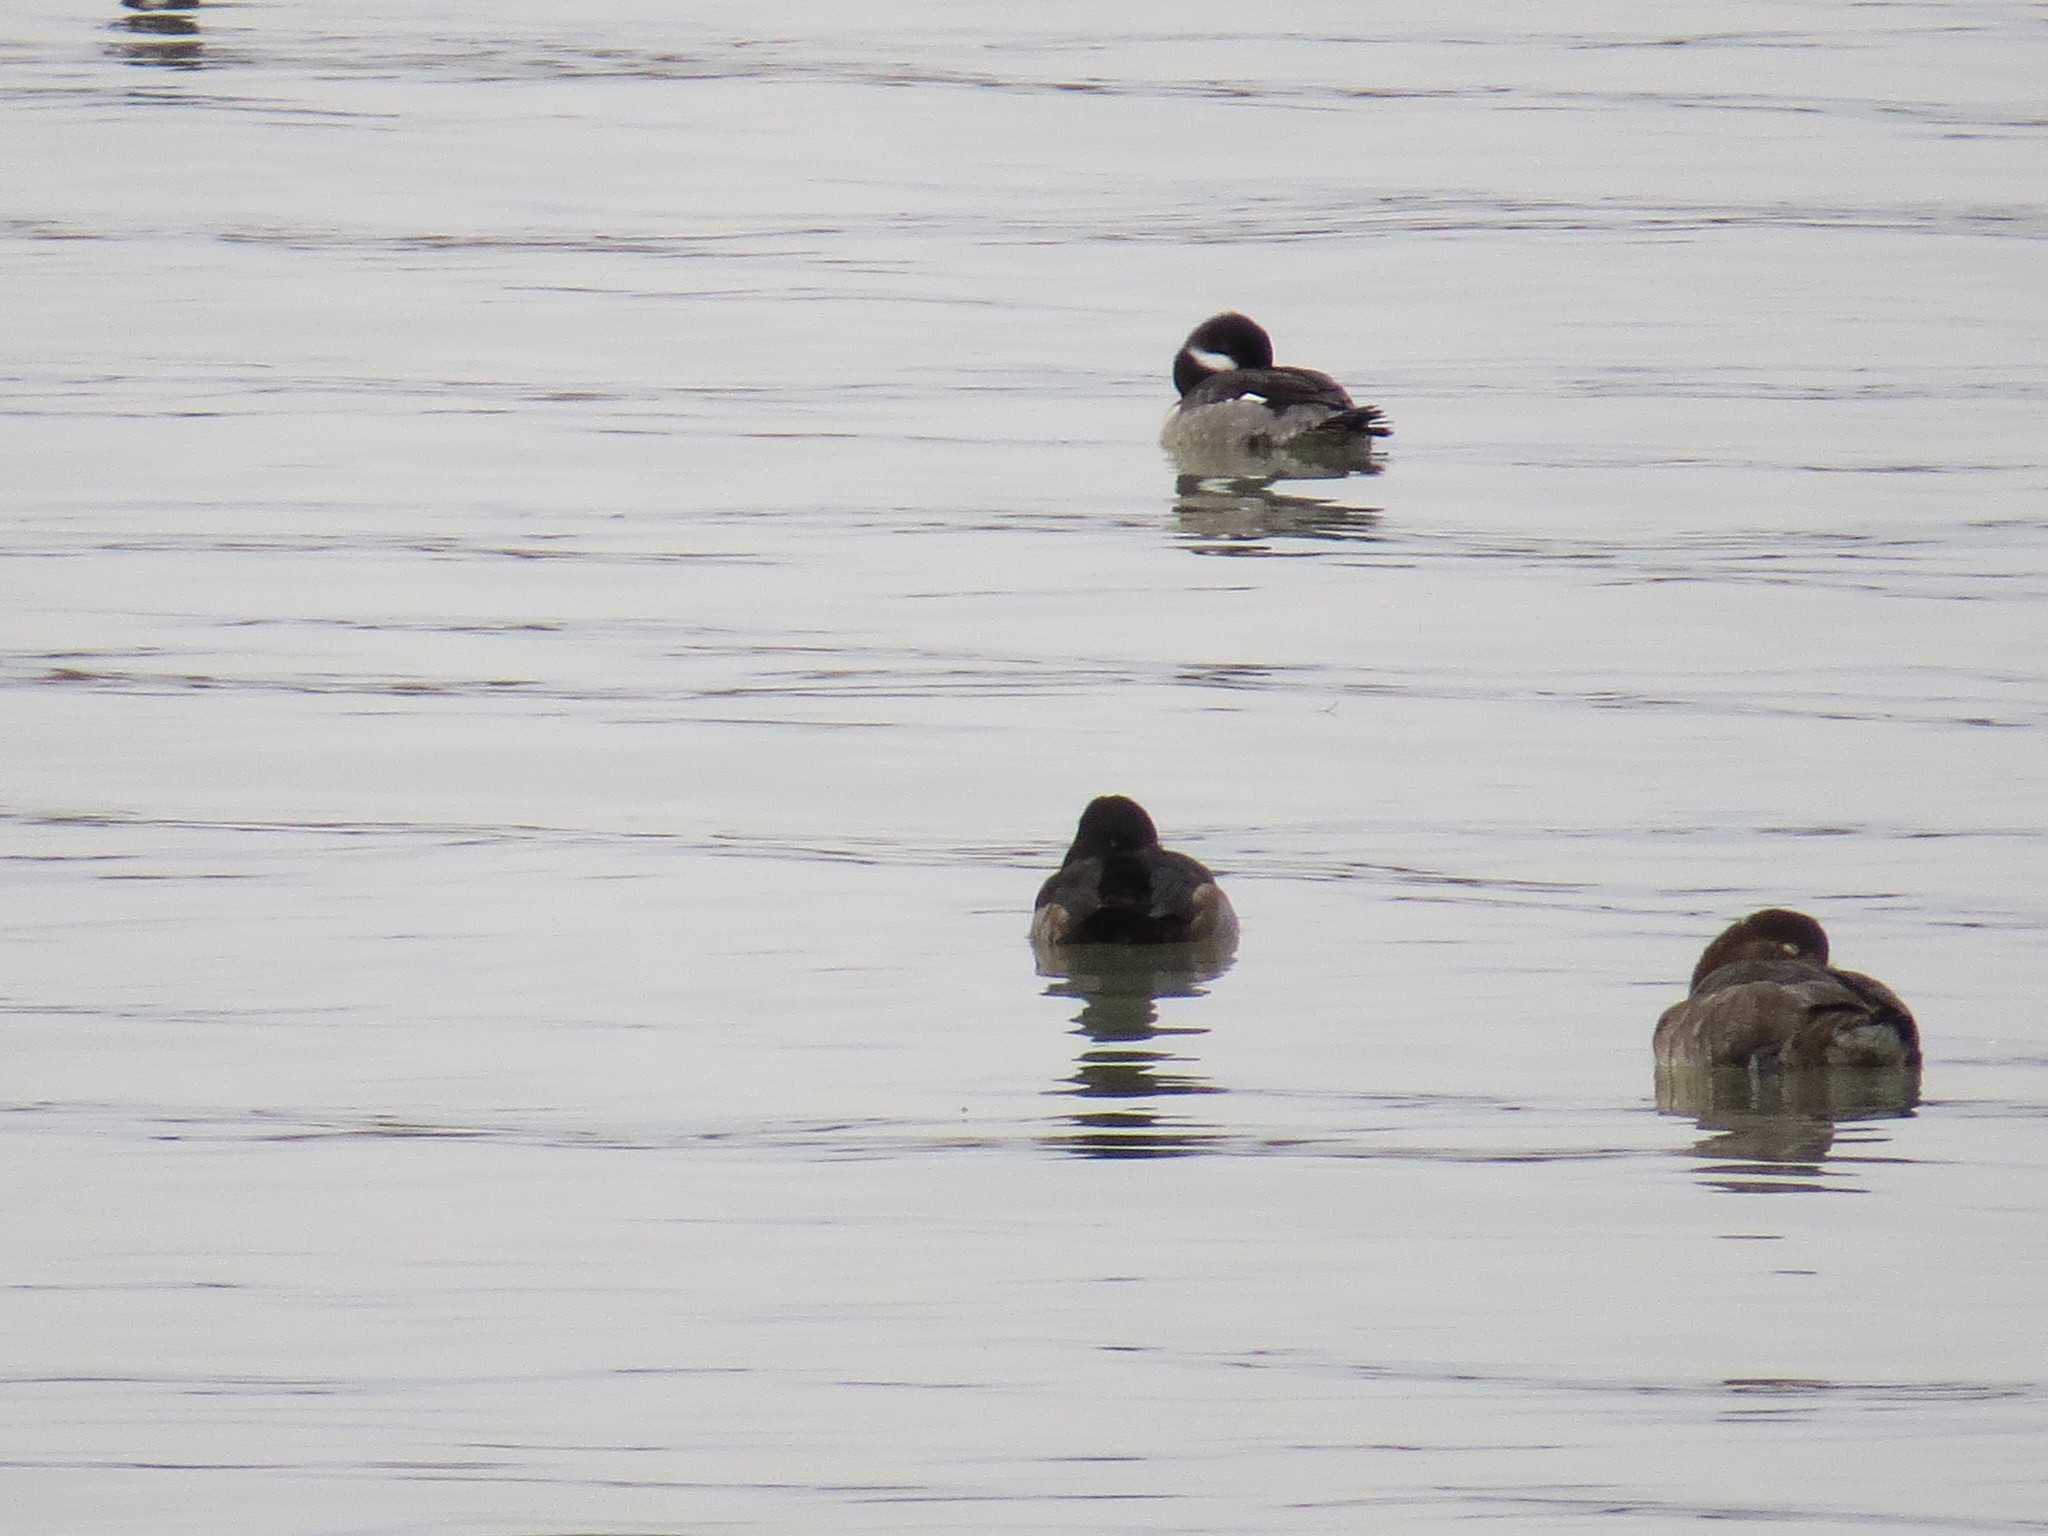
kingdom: Animalia
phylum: Chordata
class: Aves
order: Anseriformes
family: Anatidae
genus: Bucephala
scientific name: Bucephala albeola
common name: Bufflehead
